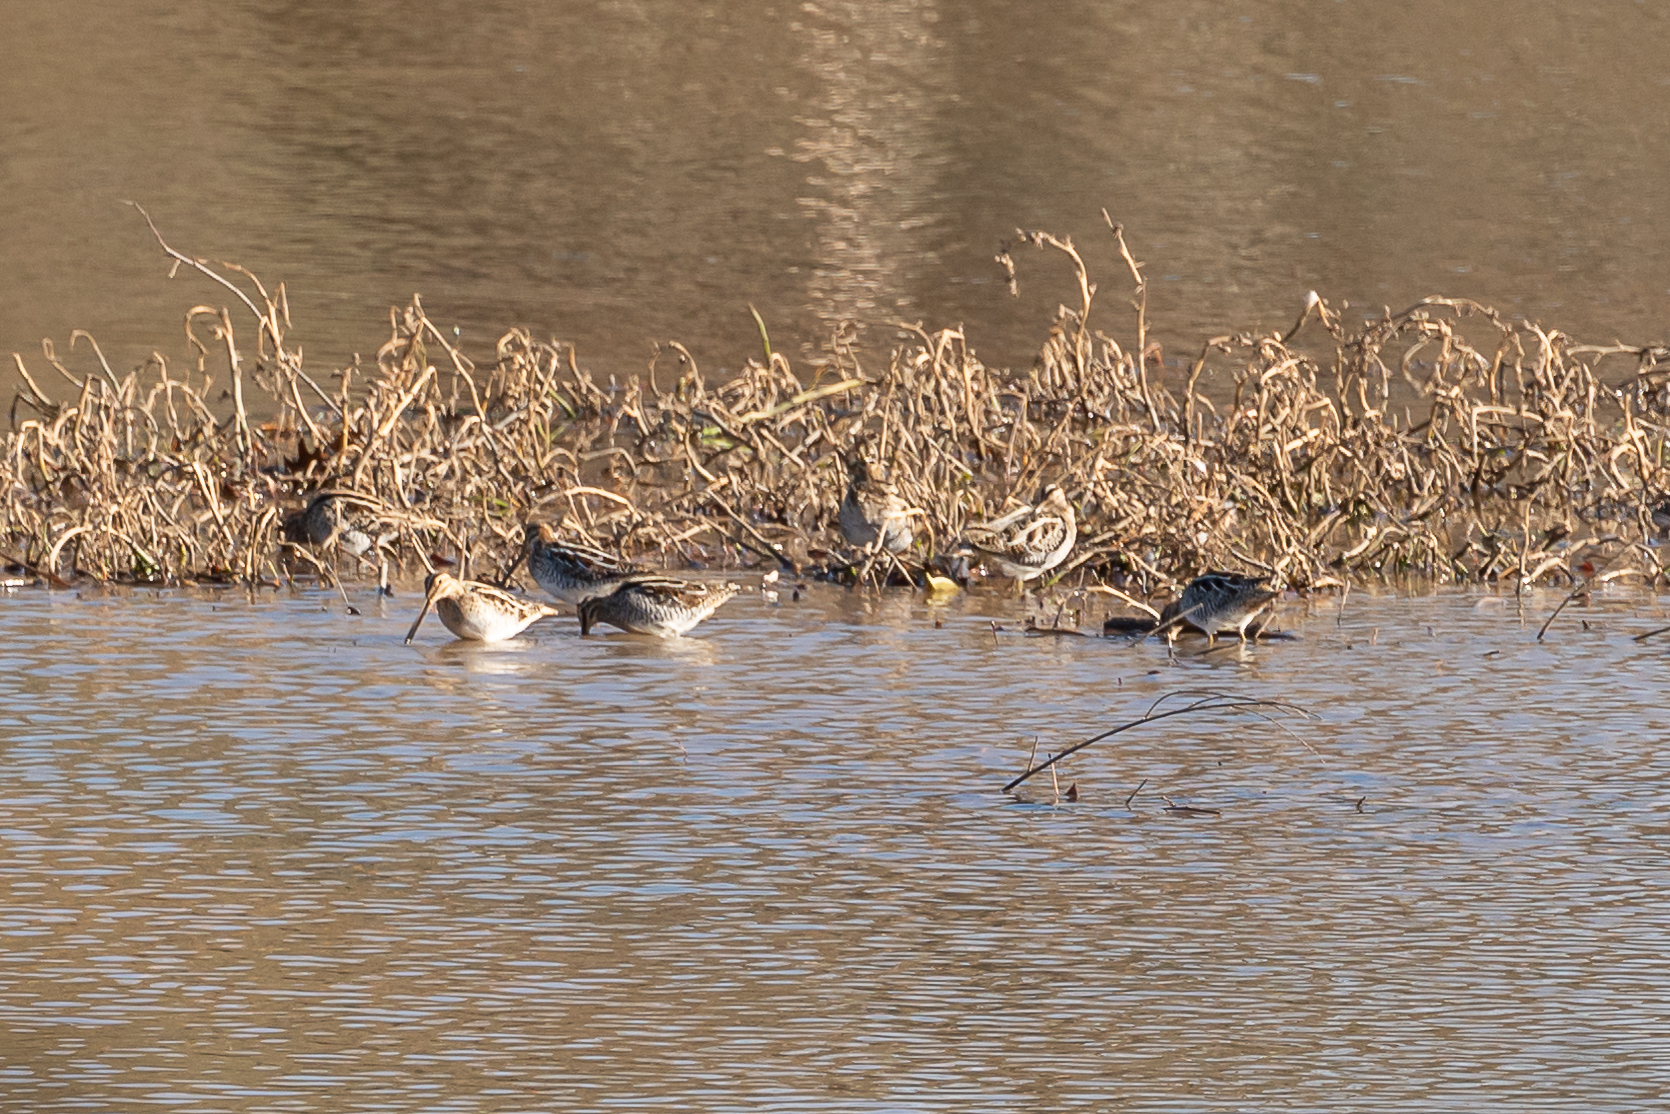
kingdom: Animalia
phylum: Chordata
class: Aves
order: Charadriiformes
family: Scolopacidae
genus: Gallinago
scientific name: Gallinago delicata
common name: Wilson's snipe
